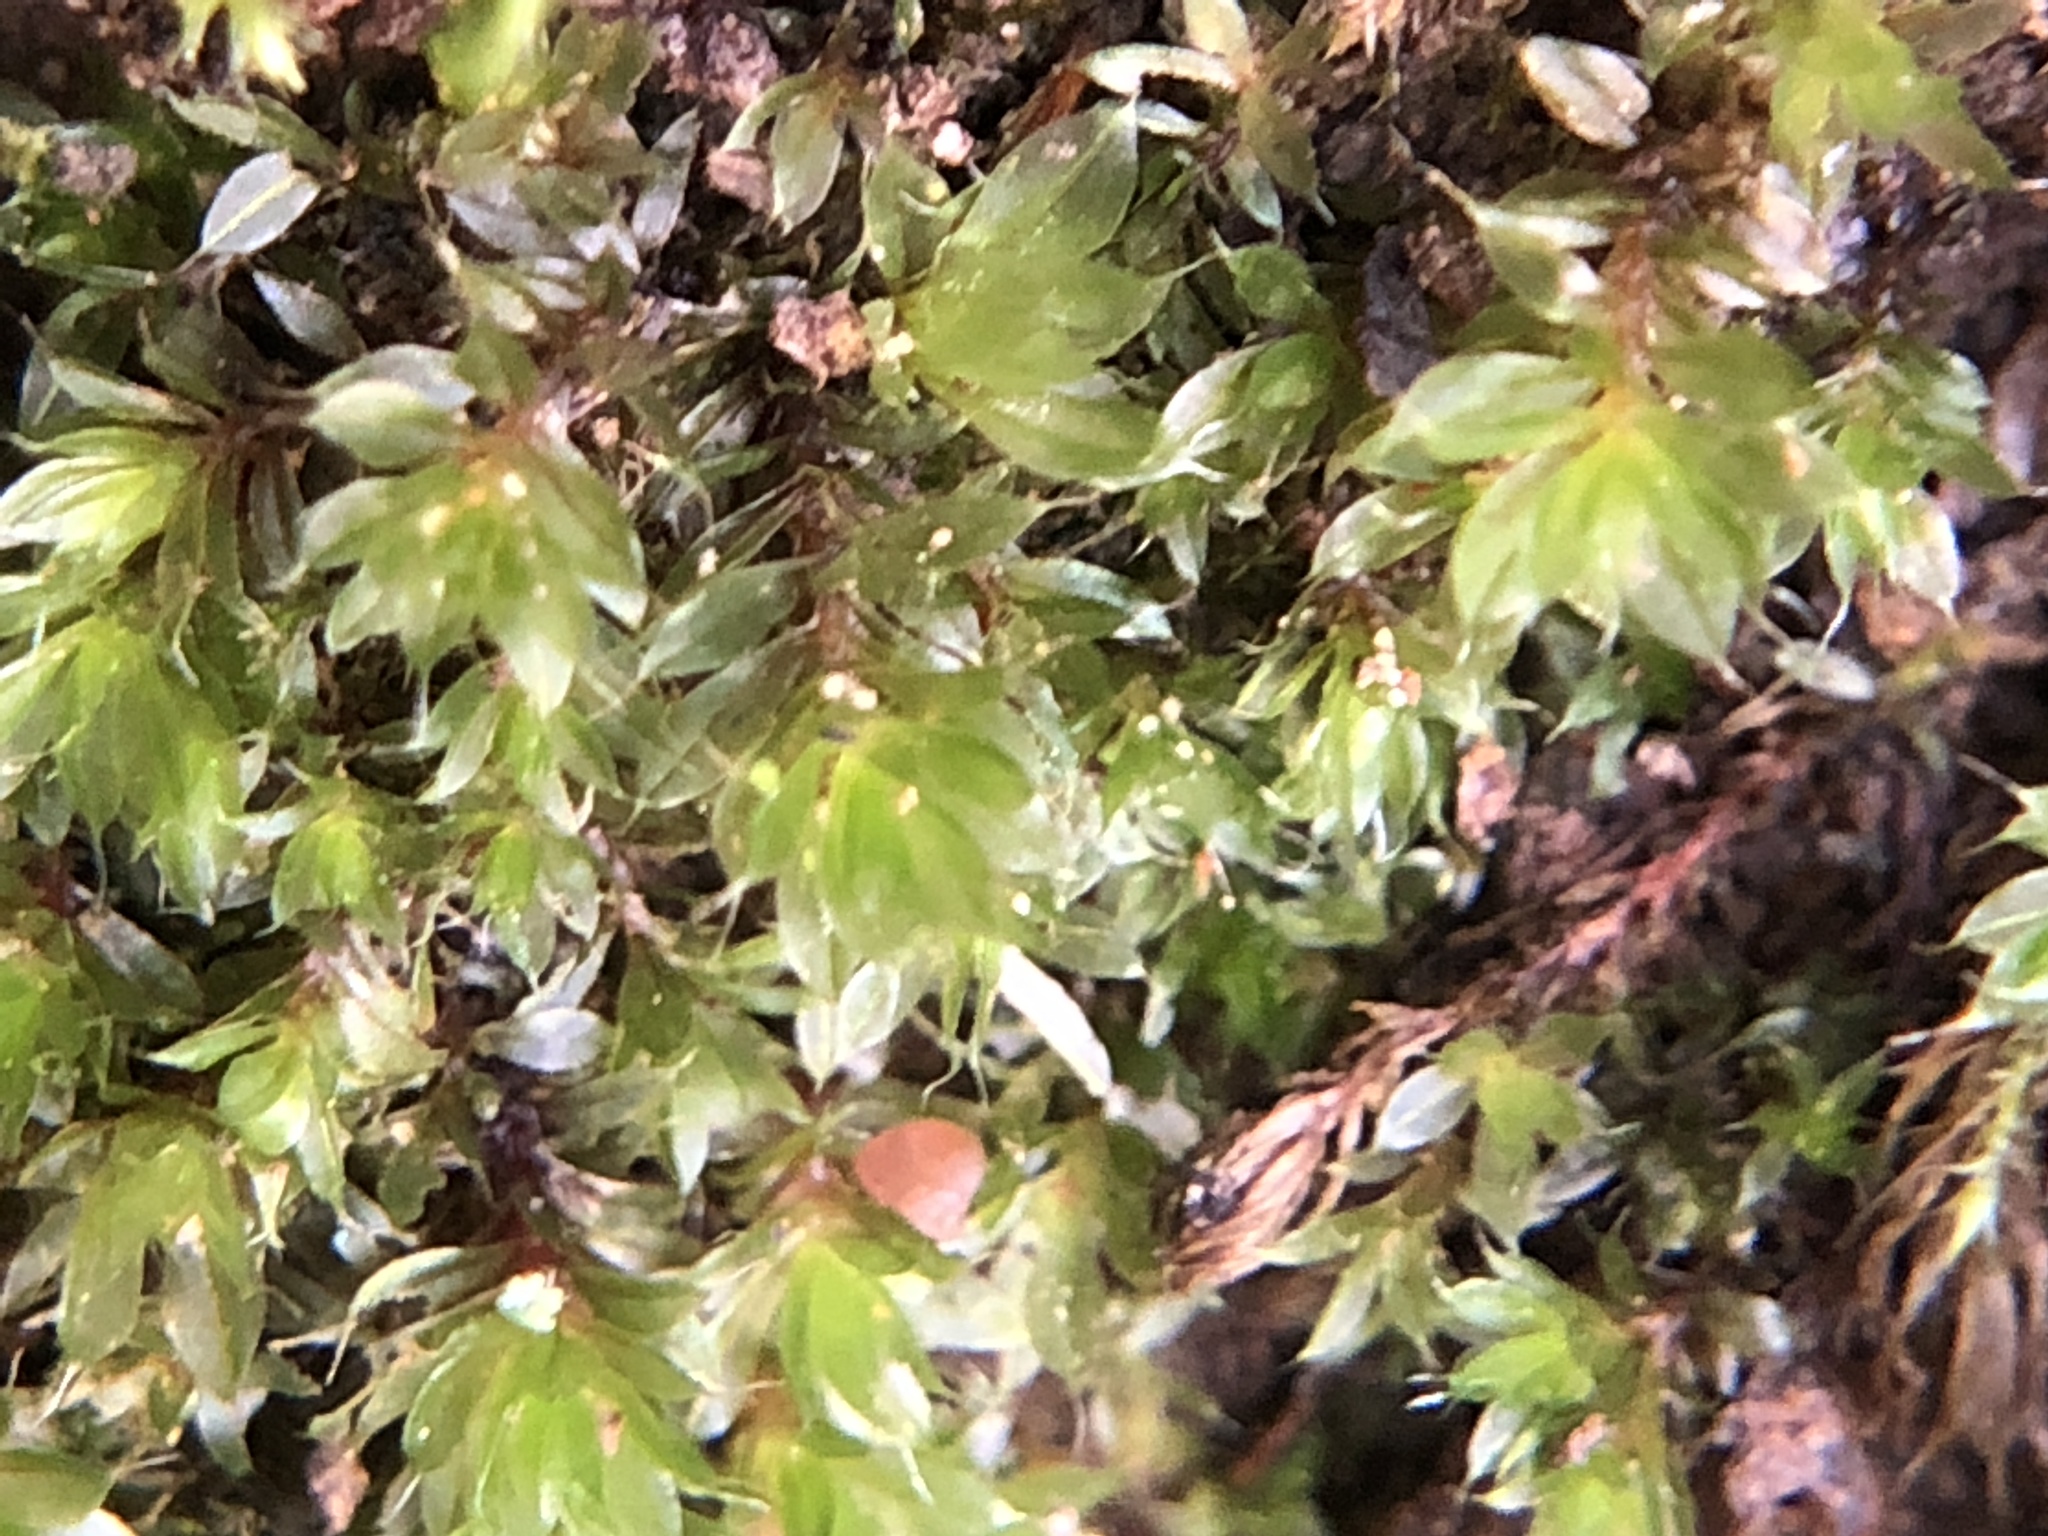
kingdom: Plantae
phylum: Bryophyta
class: Bryopsida
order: Bryales
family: Bryaceae
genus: Rosulabryum
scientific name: Rosulabryum capillare
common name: Capillary thread-moss
